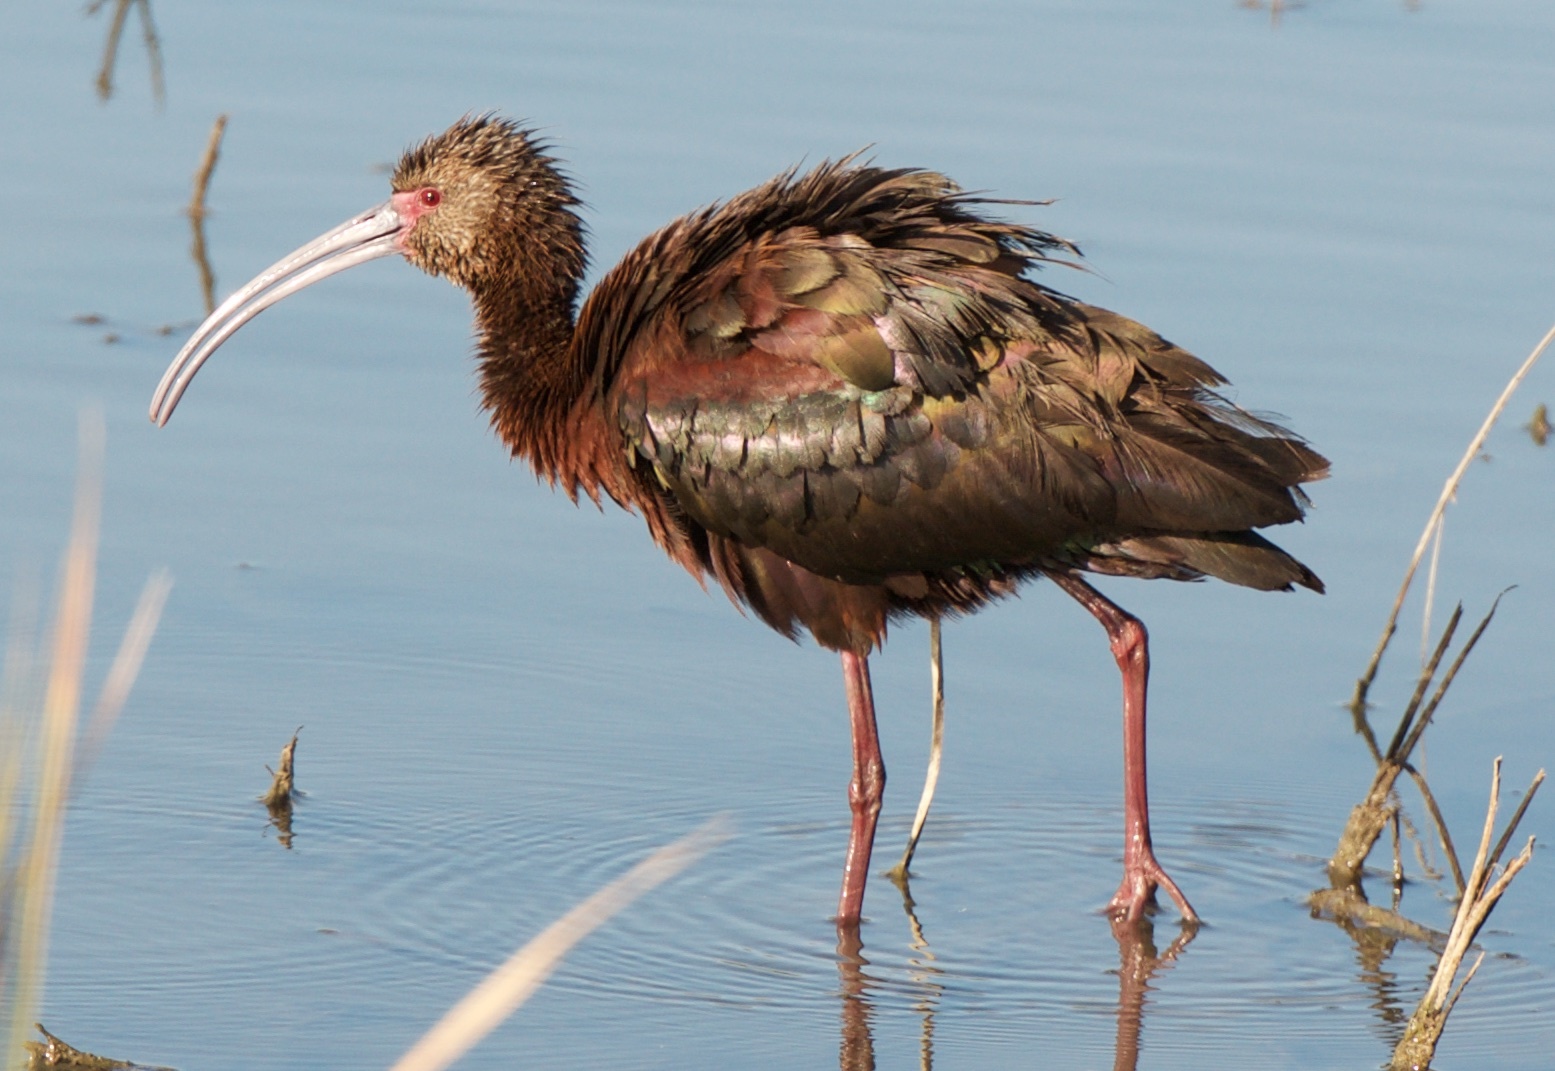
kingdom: Animalia
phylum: Chordata
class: Aves
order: Pelecaniformes
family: Threskiornithidae
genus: Plegadis
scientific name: Plegadis chihi
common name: White-faced ibis
